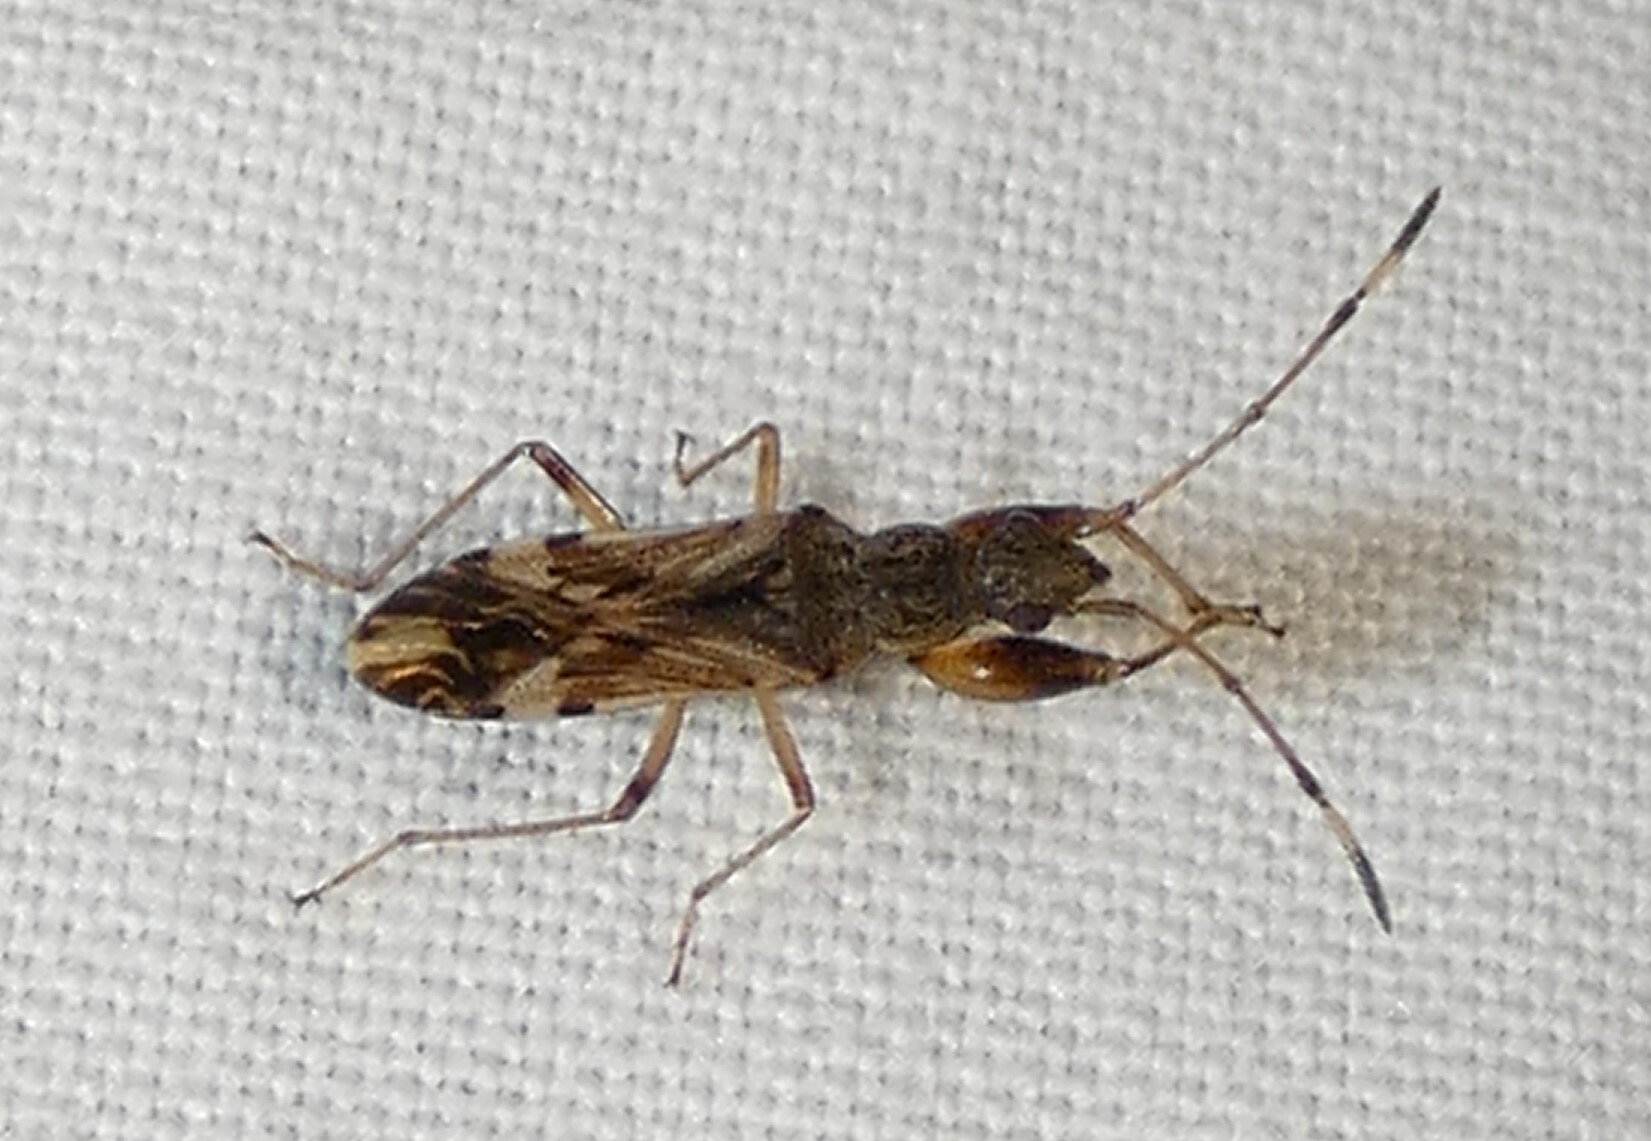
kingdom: Animalia
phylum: Arthropoda
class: Insecta
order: Hemiptera
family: Rhyparochromidae
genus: Neopamera
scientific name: Neopamera albocincta
